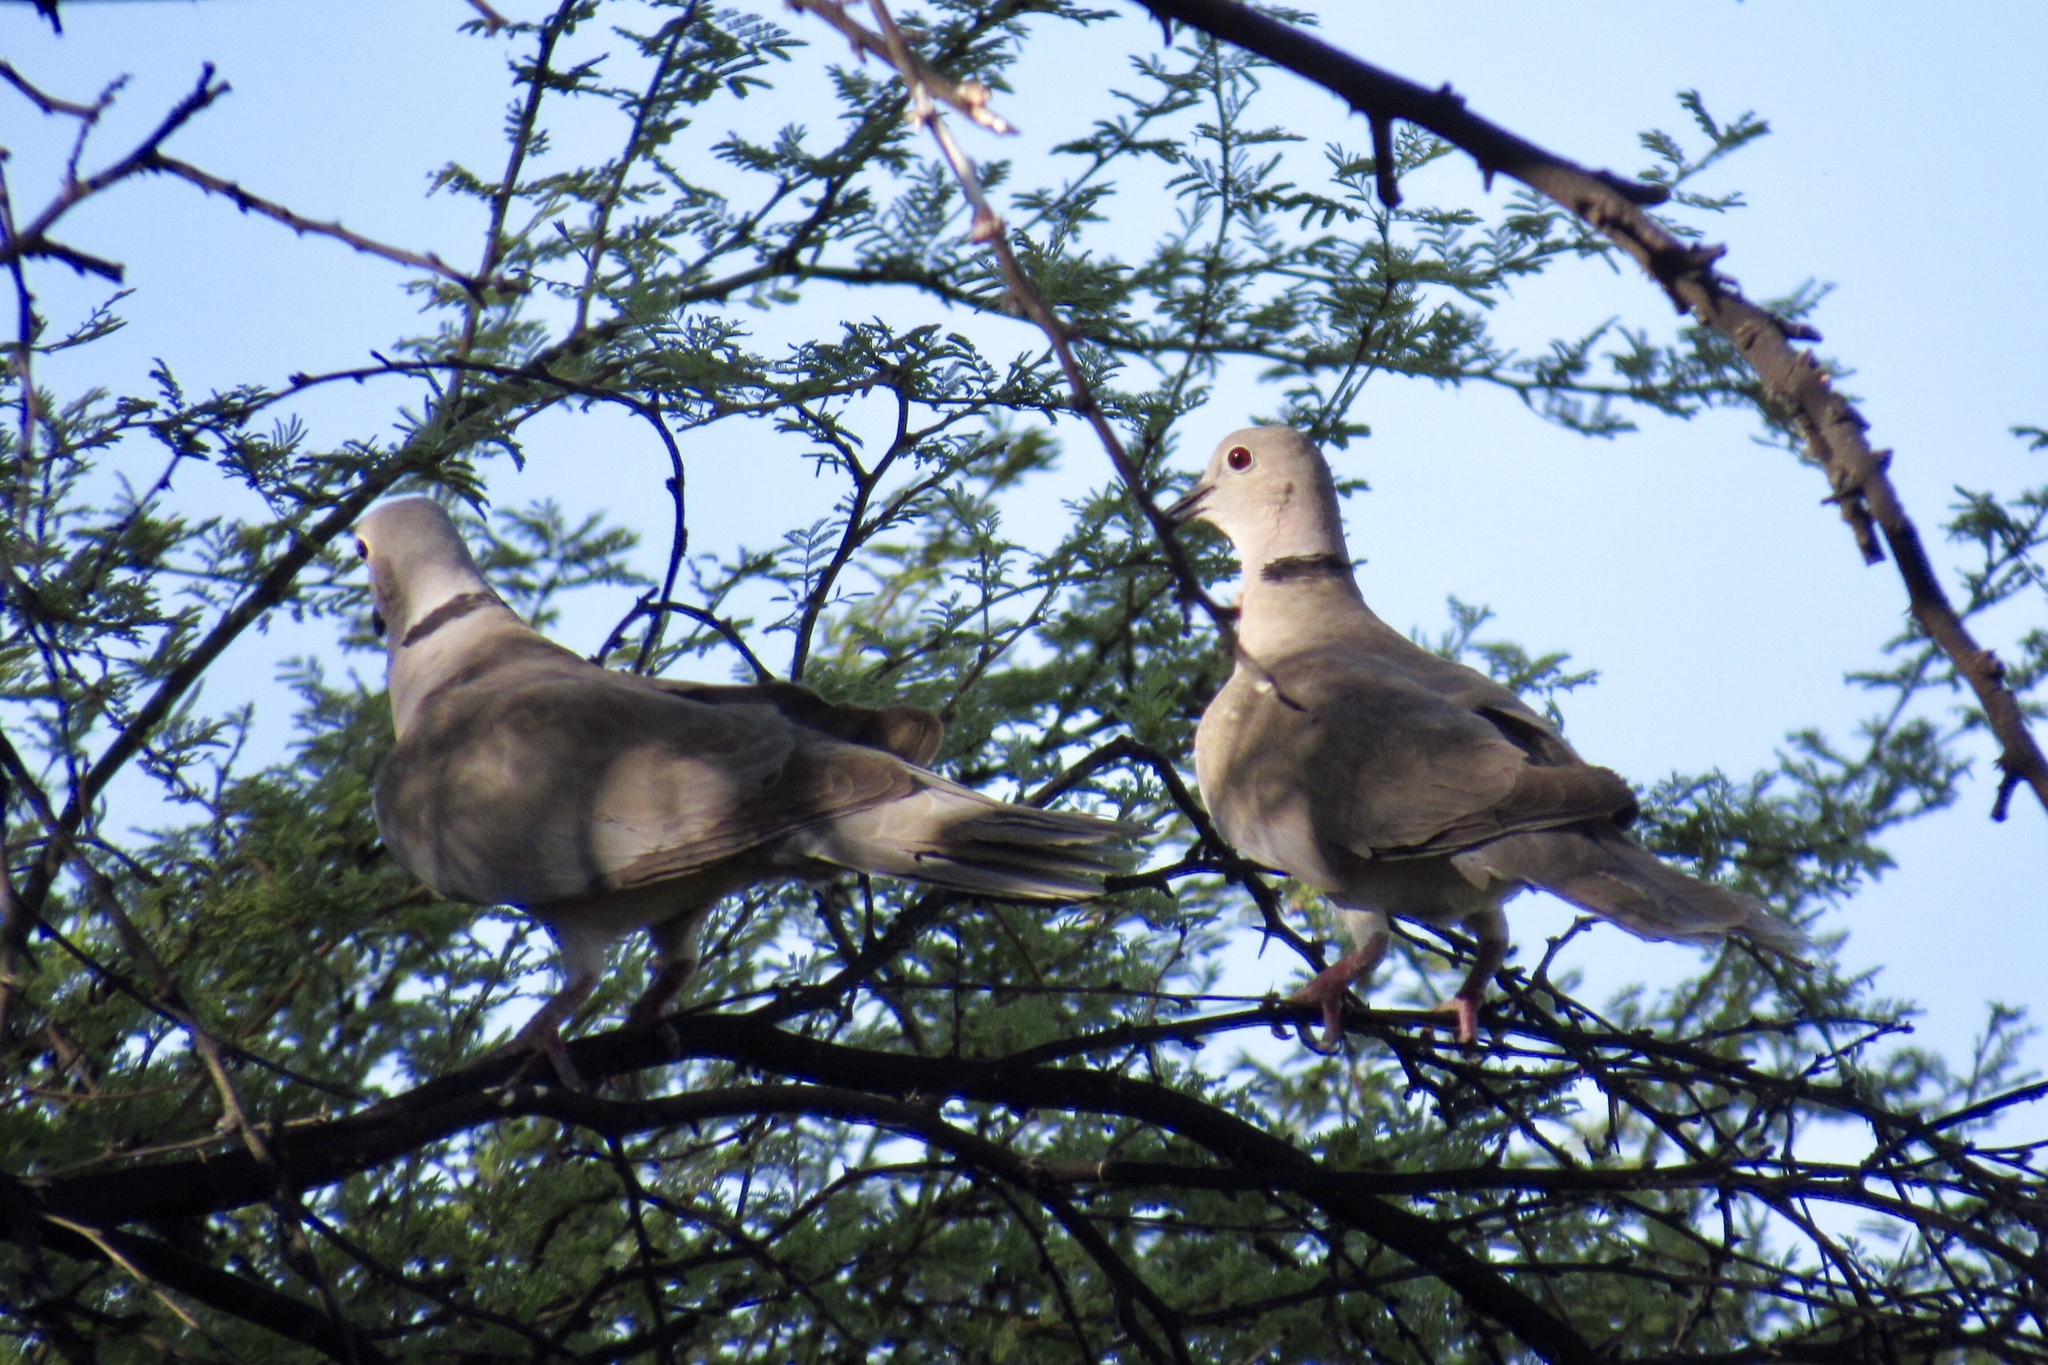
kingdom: Animalia
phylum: Chordata
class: Aves
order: Columbiformes
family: Columbidae
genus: Streptopelia
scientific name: Streptopelia decaocto
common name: Eurasian collared dove
